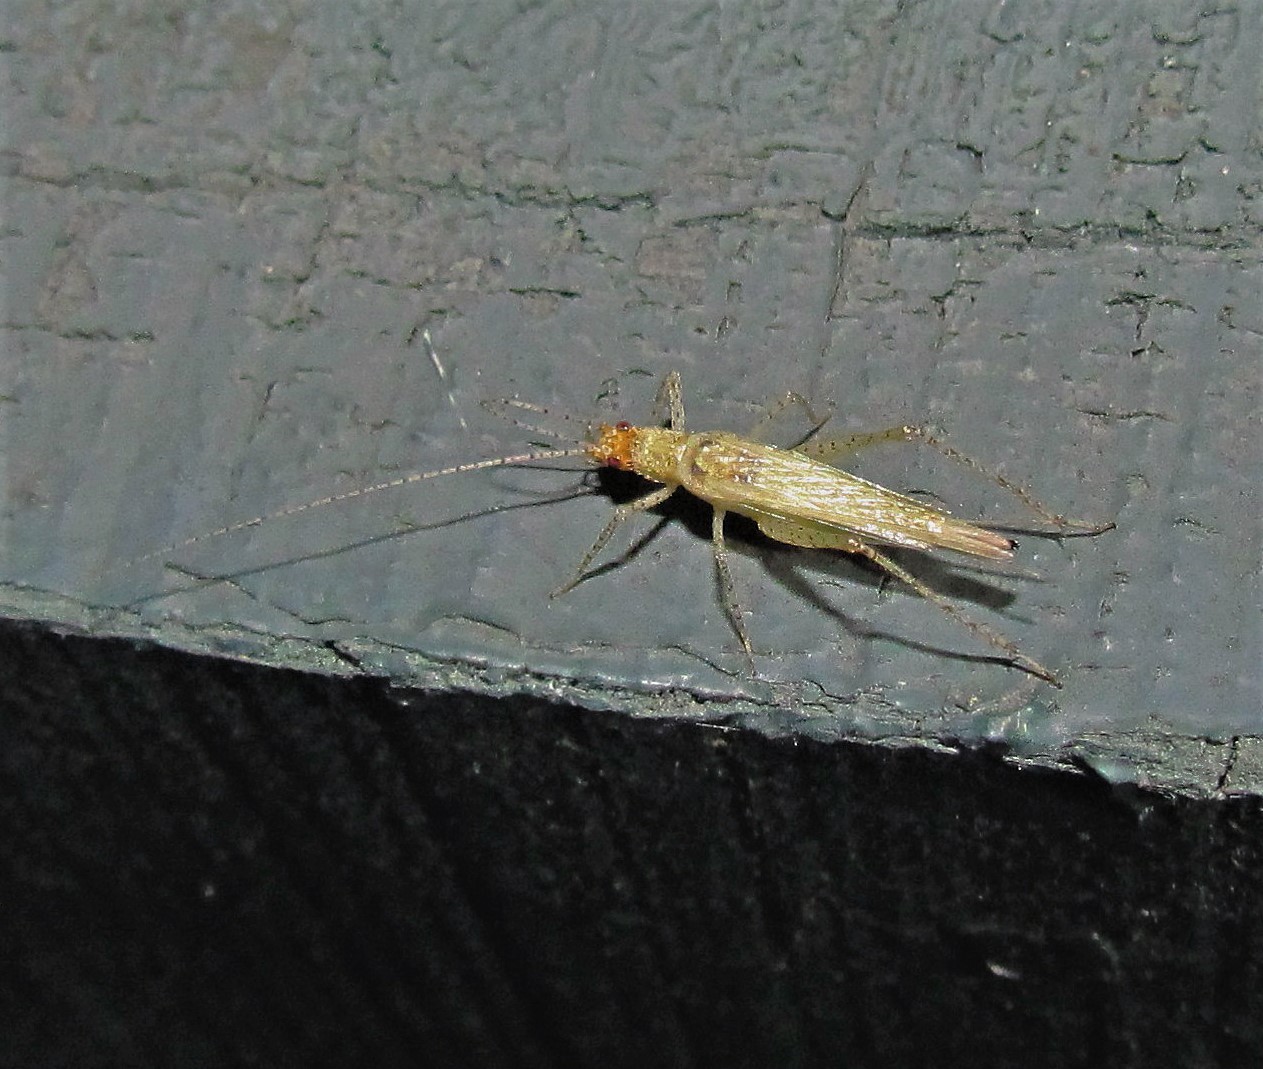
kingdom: Animalia
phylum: Arthropoda
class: Insecta
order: Orthoptera
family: Gryllidae
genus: Oecanthus
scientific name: Oecanthus pictus
